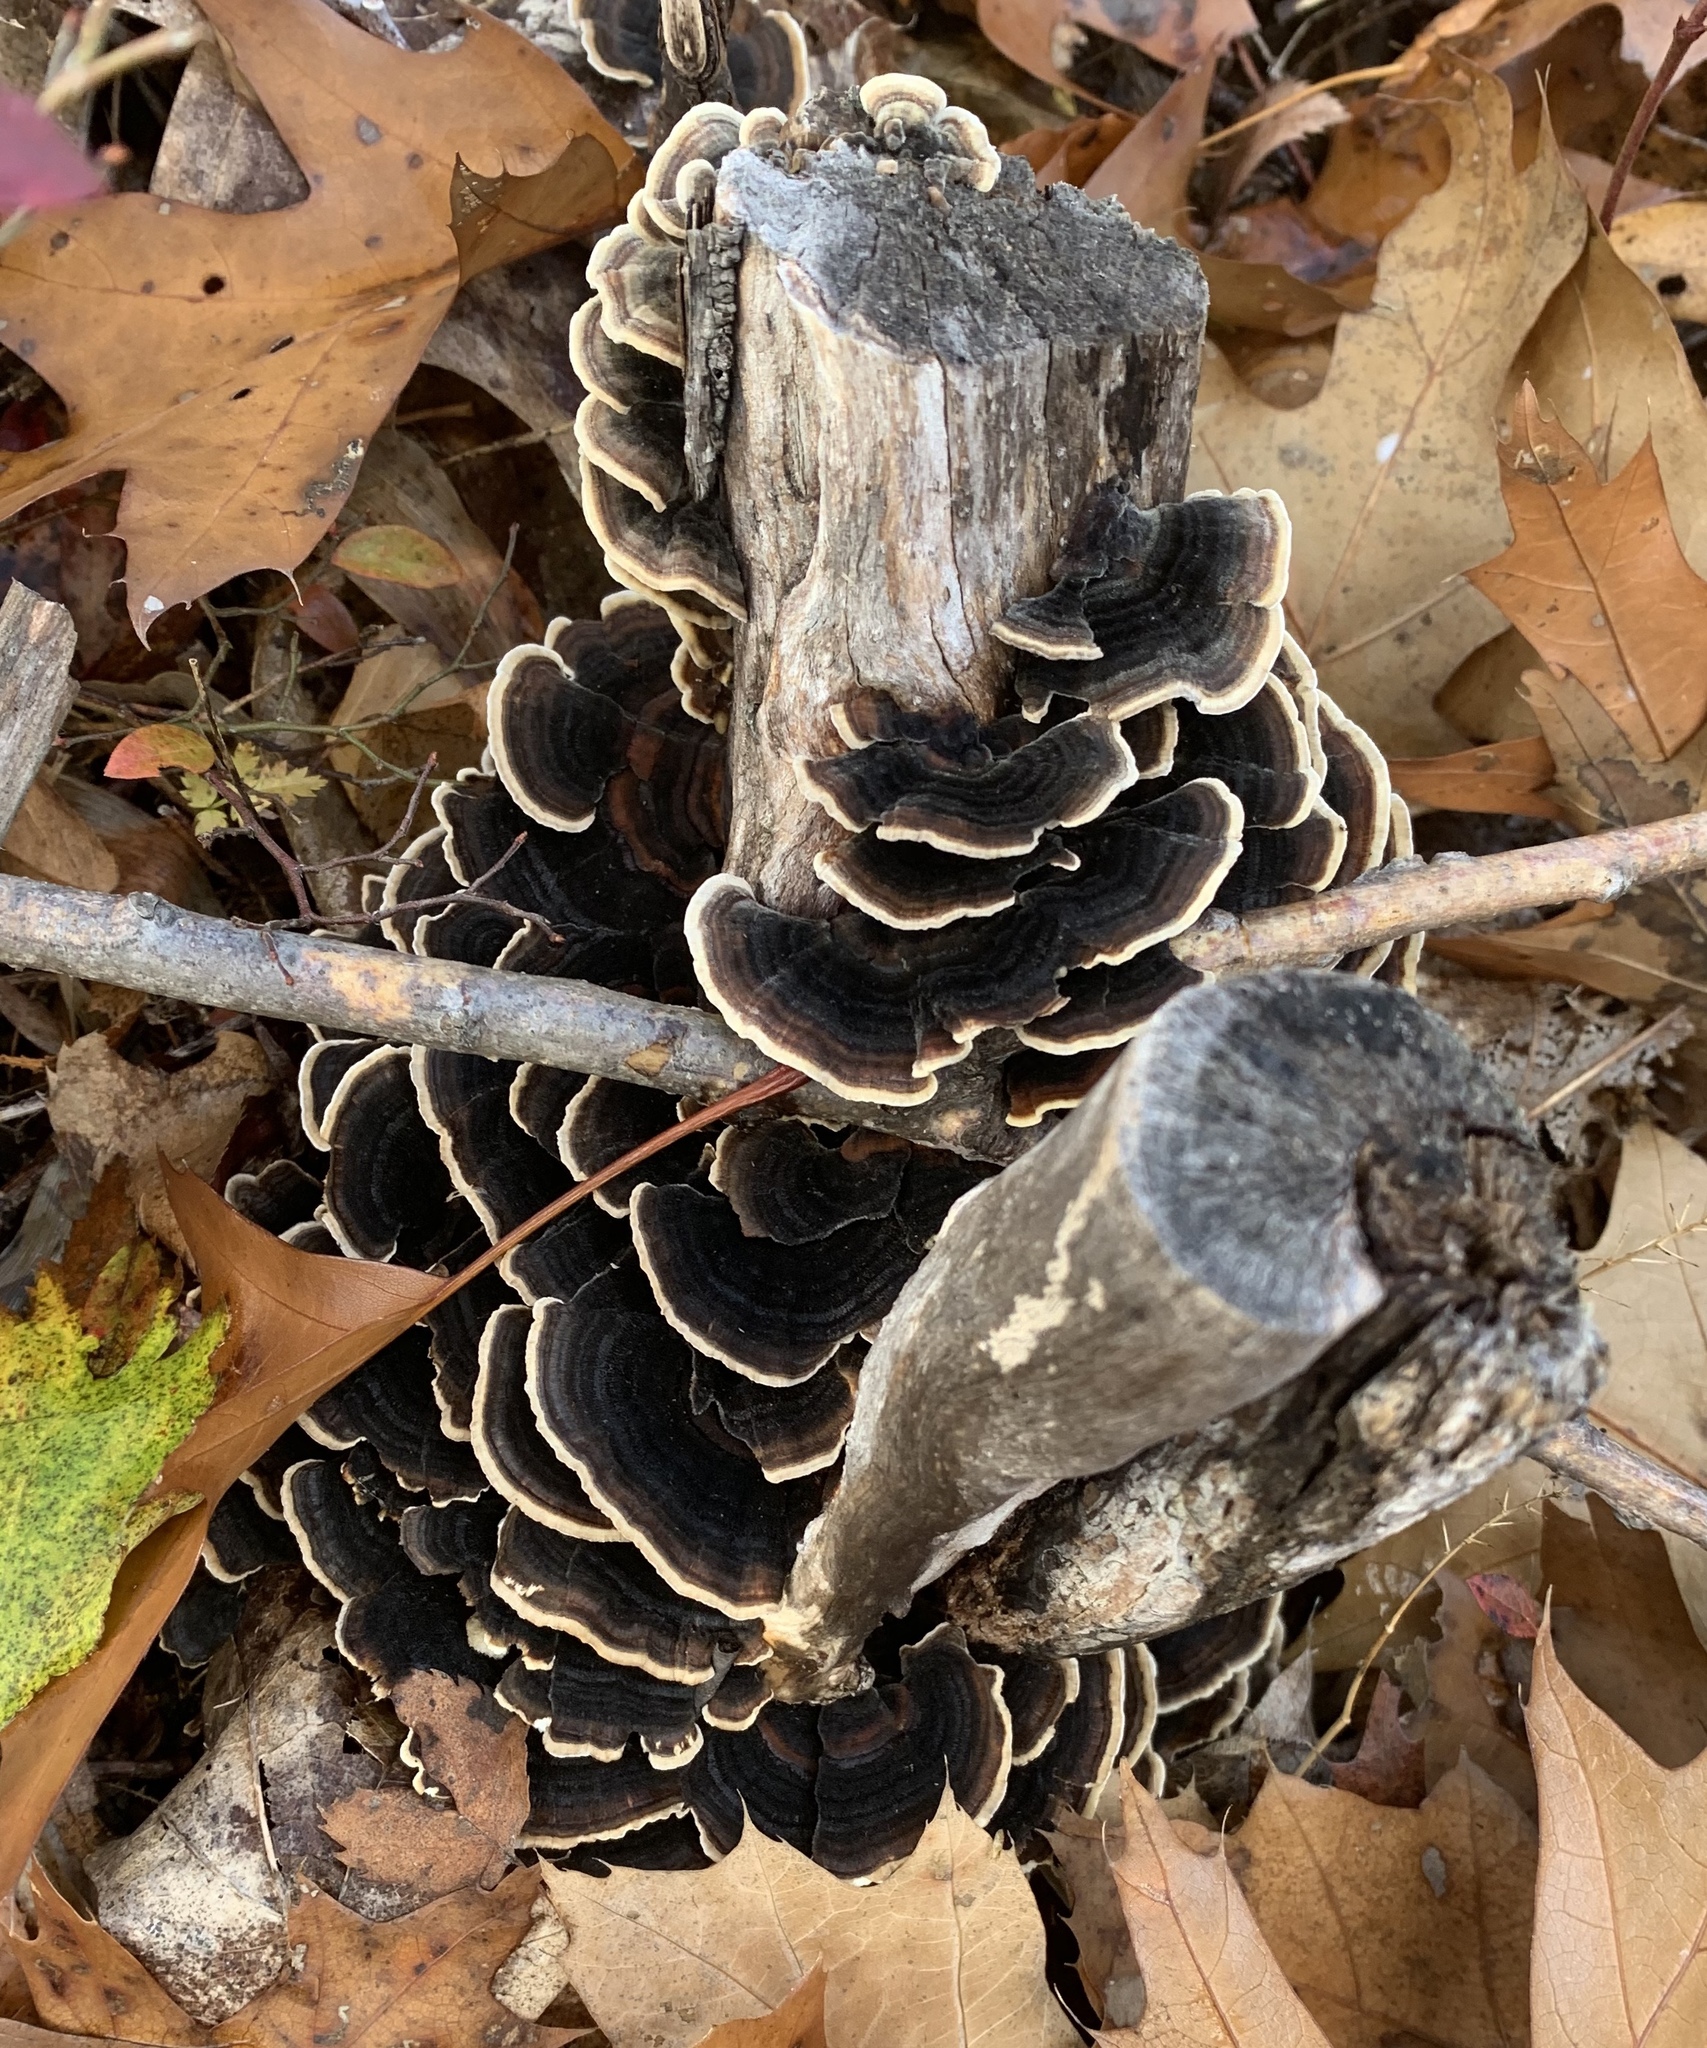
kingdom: Fungi
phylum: Basidiomycota
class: Agaricomycetes
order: Polyporales
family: Polyporaceae
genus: Trametes
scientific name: Trametes versicolor
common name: Turkeytail
